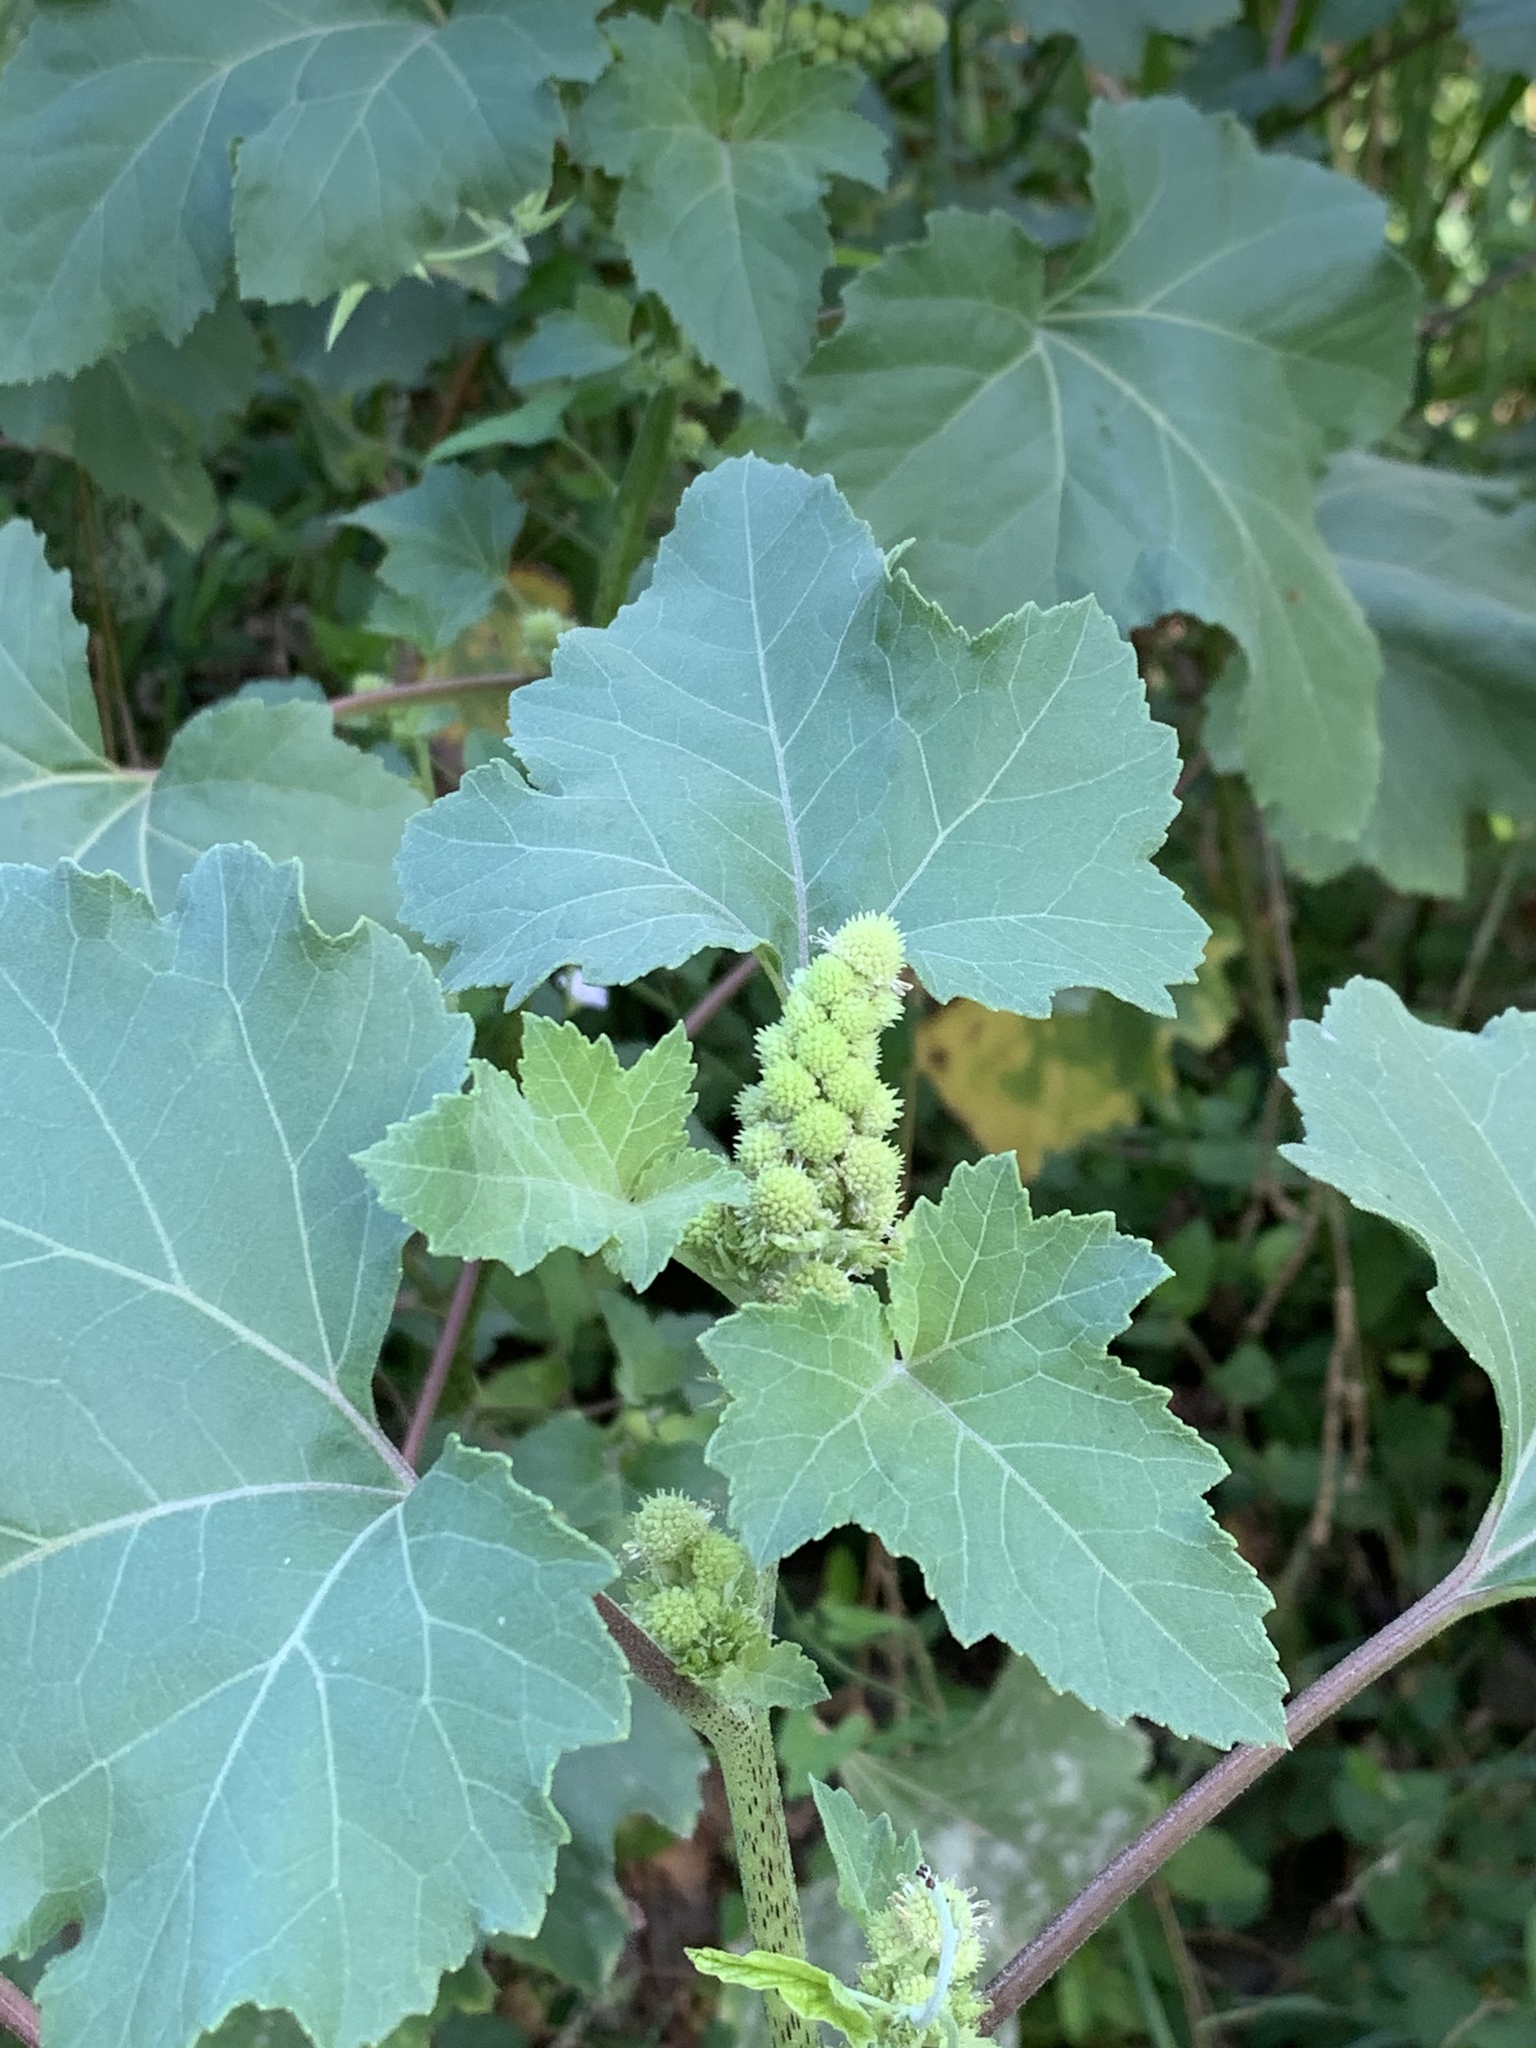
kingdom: Plantae
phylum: Tracheophyta
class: Magnoliopsida
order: Asterales
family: Asteraceae
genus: Xanthium
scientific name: Xanthium strumarium
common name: Rough cocklebur
